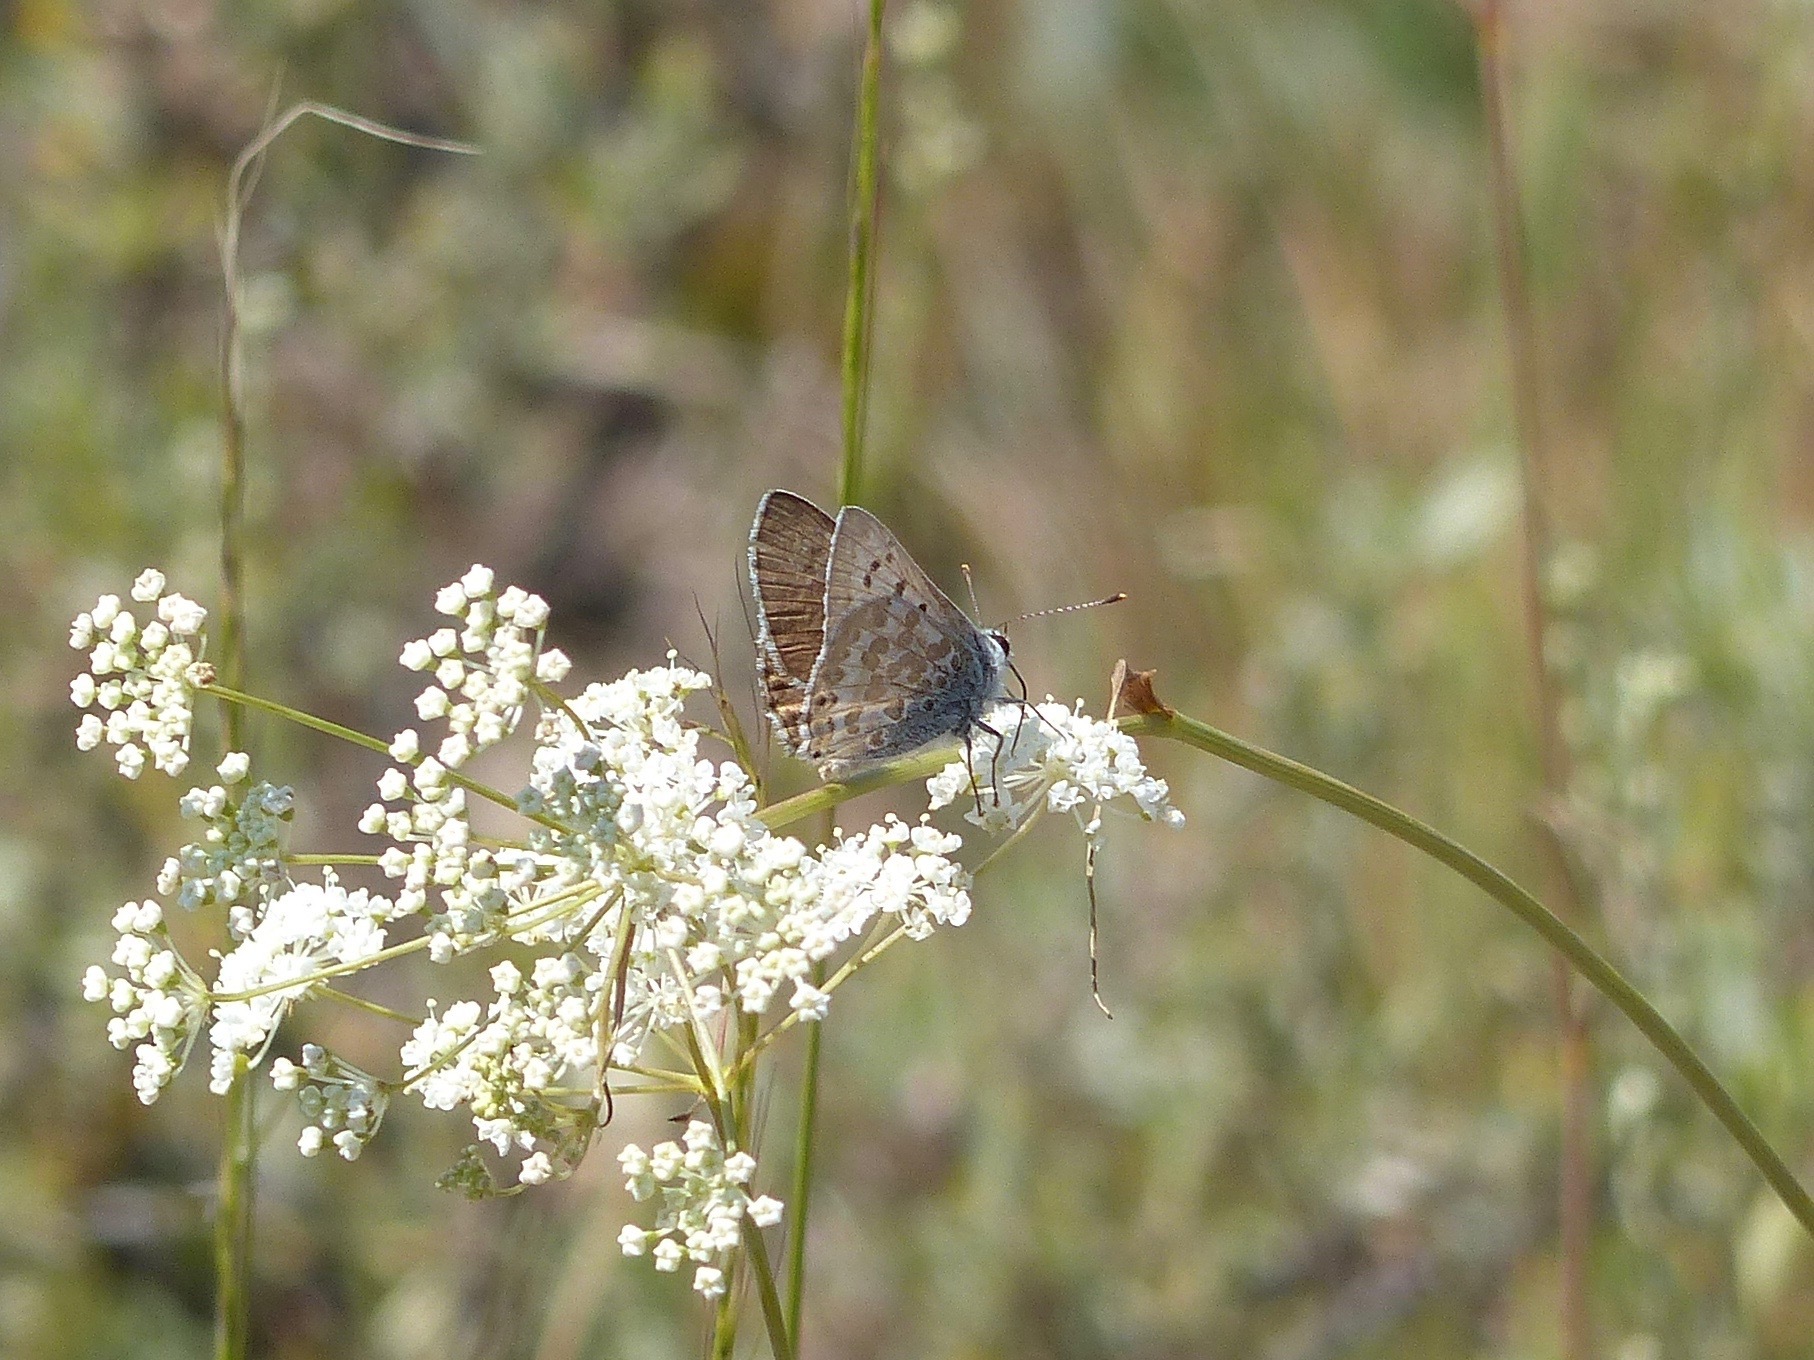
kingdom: Animalia
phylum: Arthropoda
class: Insecta
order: Lepidoptera
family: Lycaenidae
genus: Tharsalea
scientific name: Tharsalea editha
